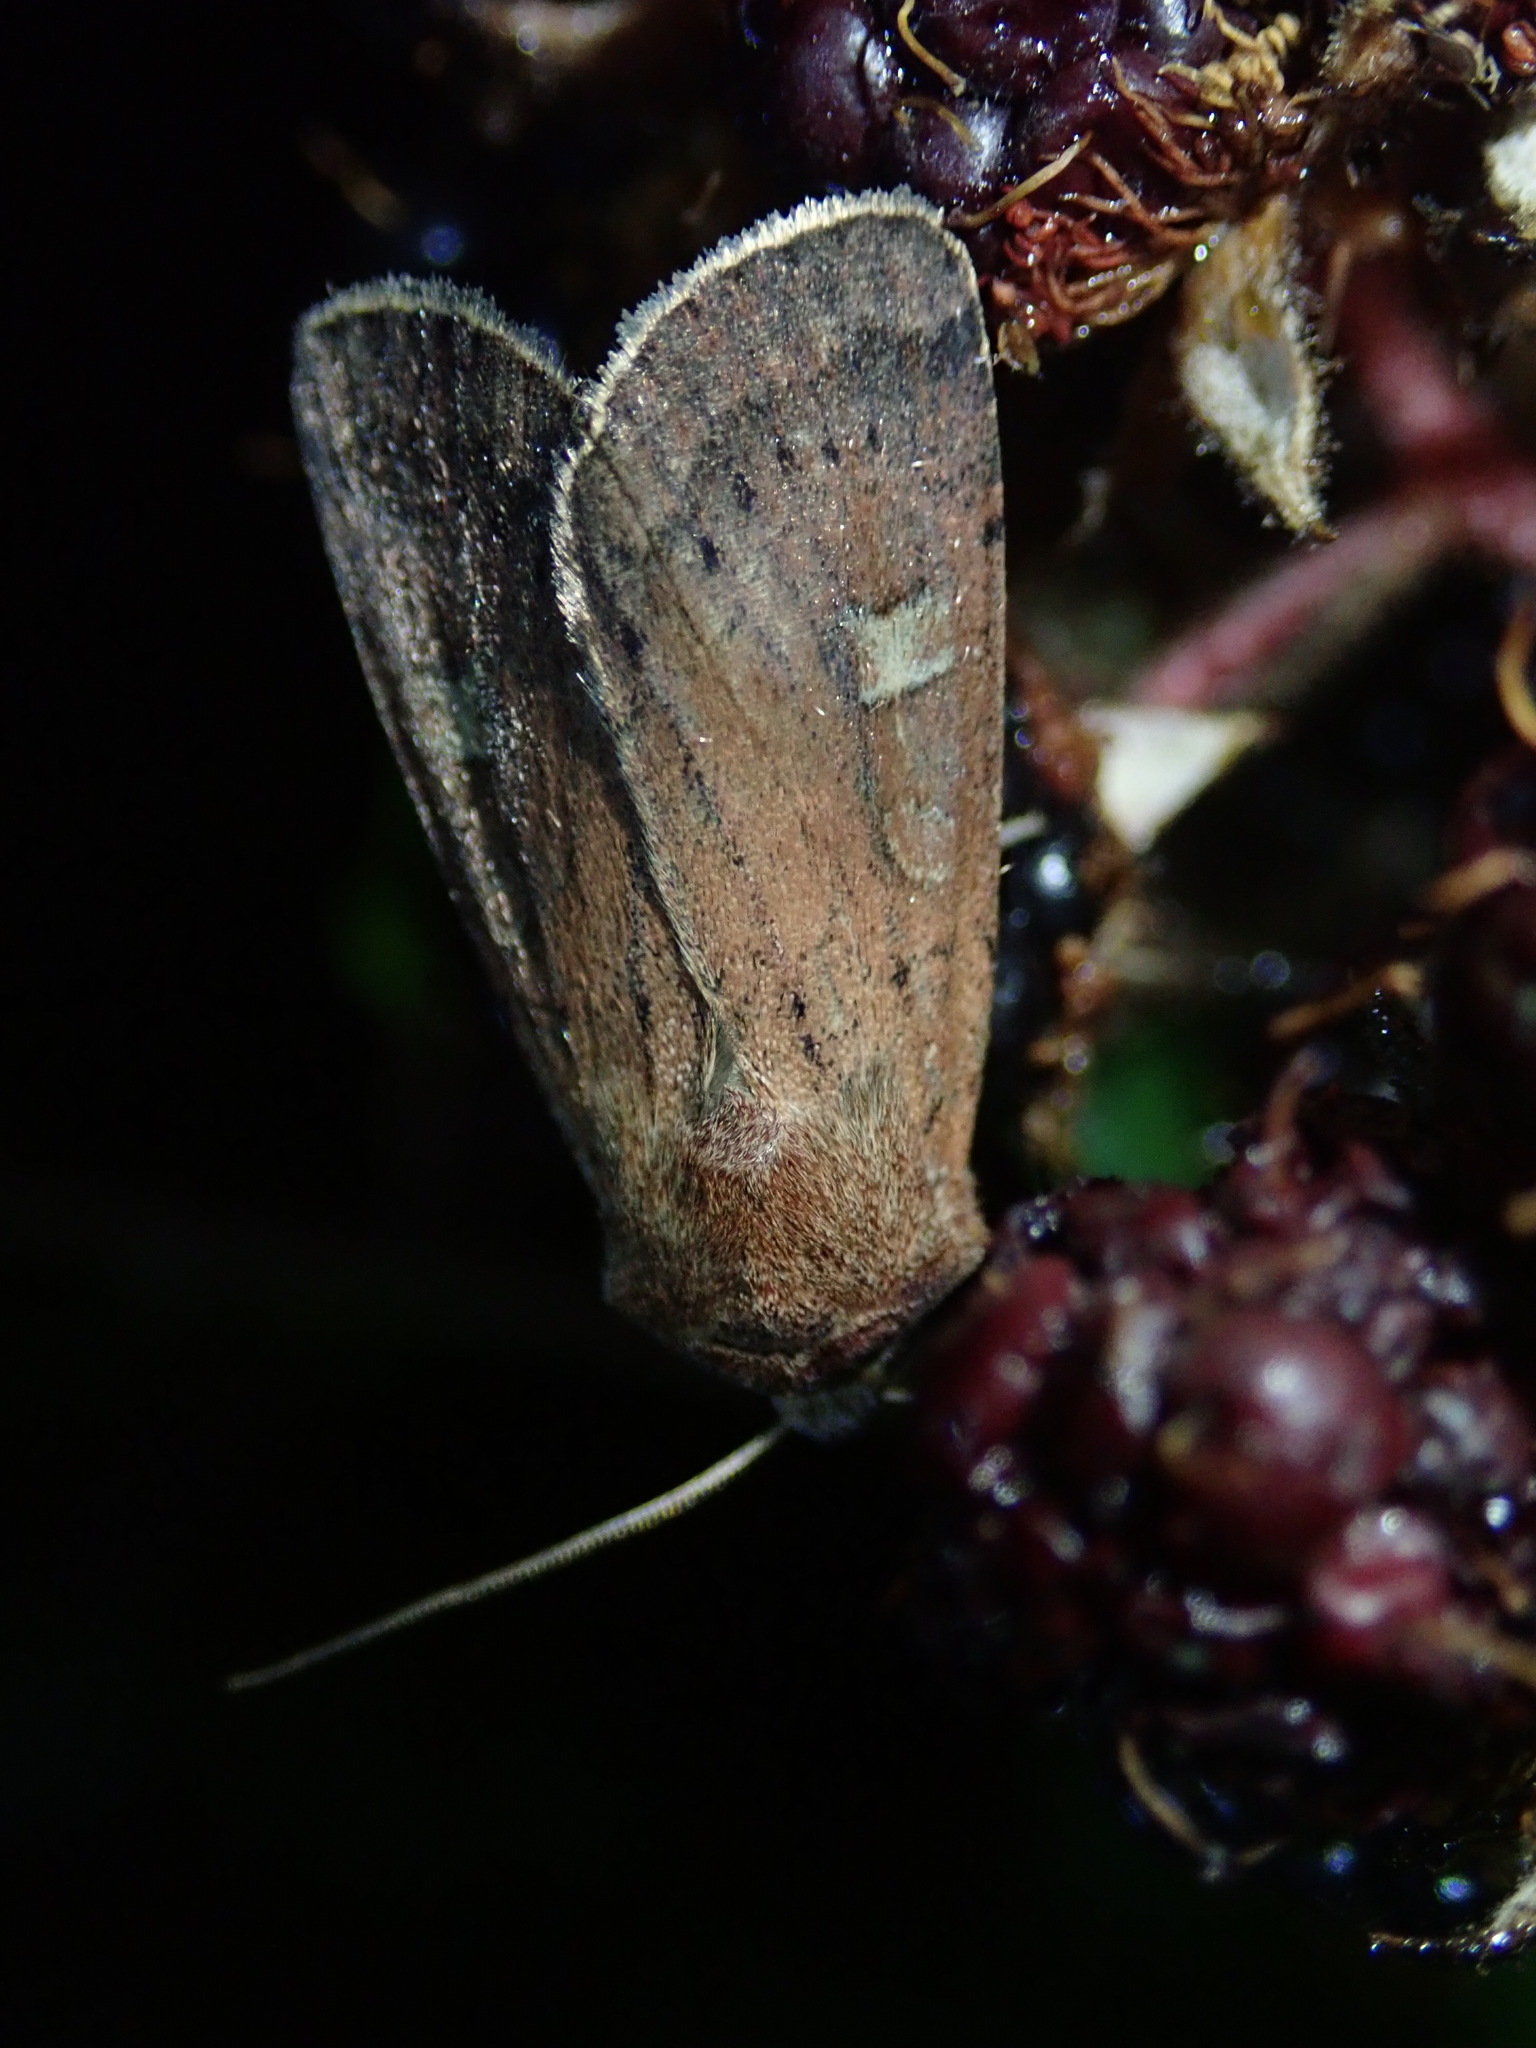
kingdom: Animalia
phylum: Arthropoda
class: Insecta
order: Lepidoptera
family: Noctuidae
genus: Xestia
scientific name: Xestia xanthographa
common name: Square-spot rustic
